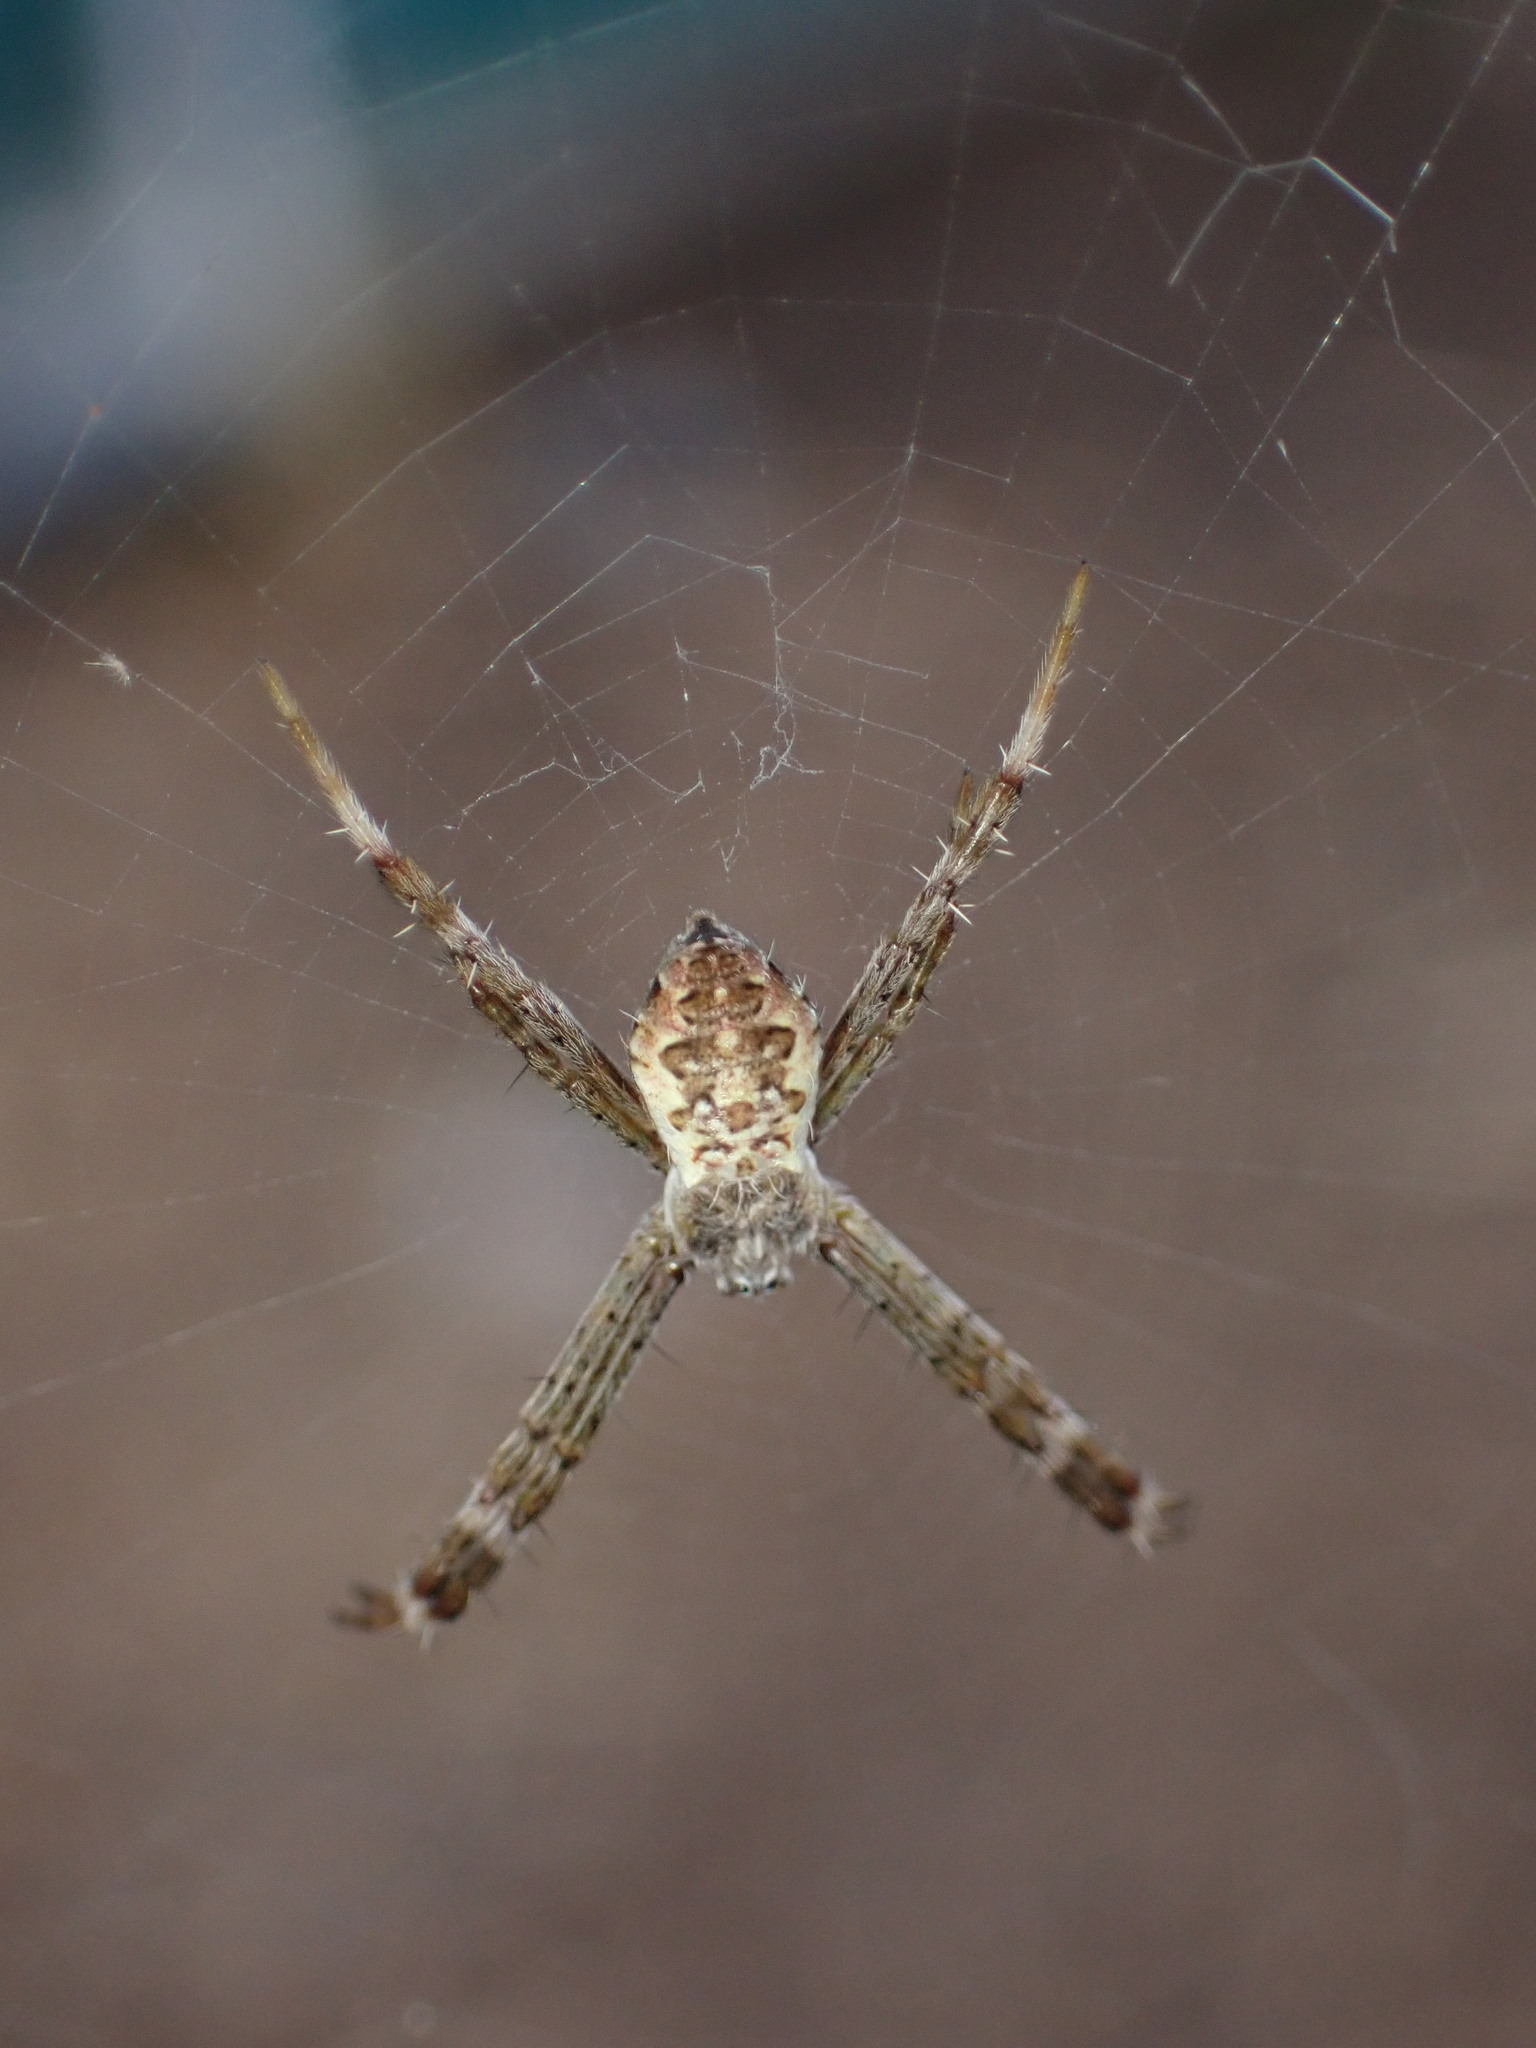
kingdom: Animalia
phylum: Arthropoda
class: Arachnida
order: Araneae
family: Araneidae
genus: Argiope
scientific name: Argiope appensa
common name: Garden spider
